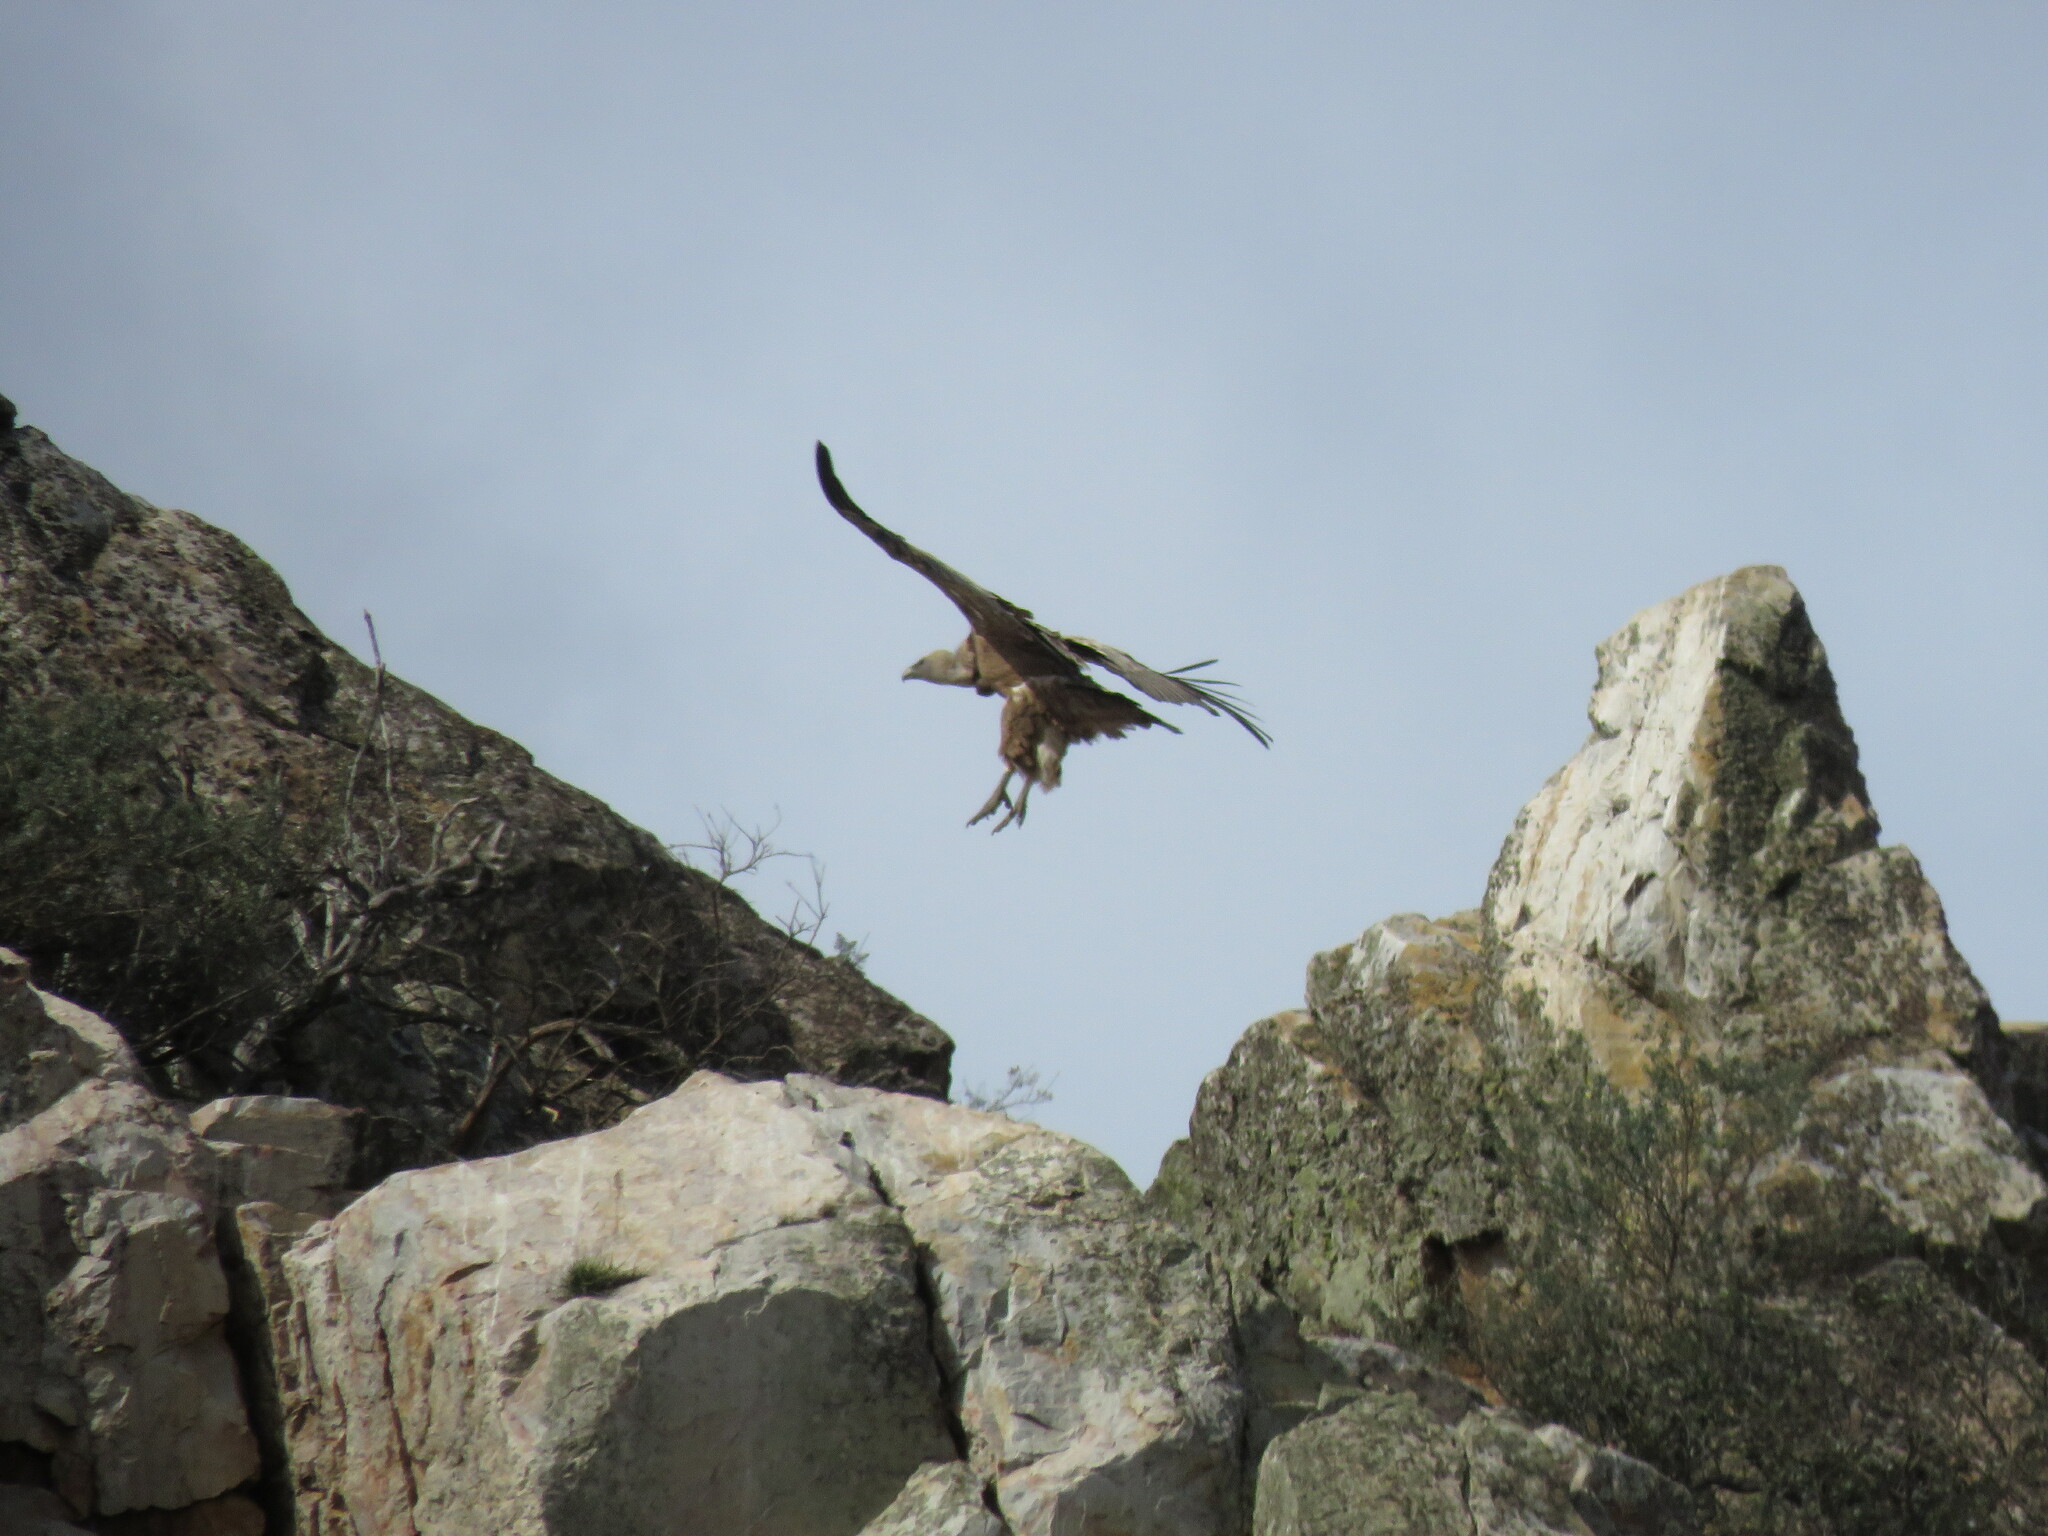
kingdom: Animalia
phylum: Chordata
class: Aves
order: Accipitriformes
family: Accipitridae
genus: Gyps
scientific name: Gyps fulvus
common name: Griffon vulture
